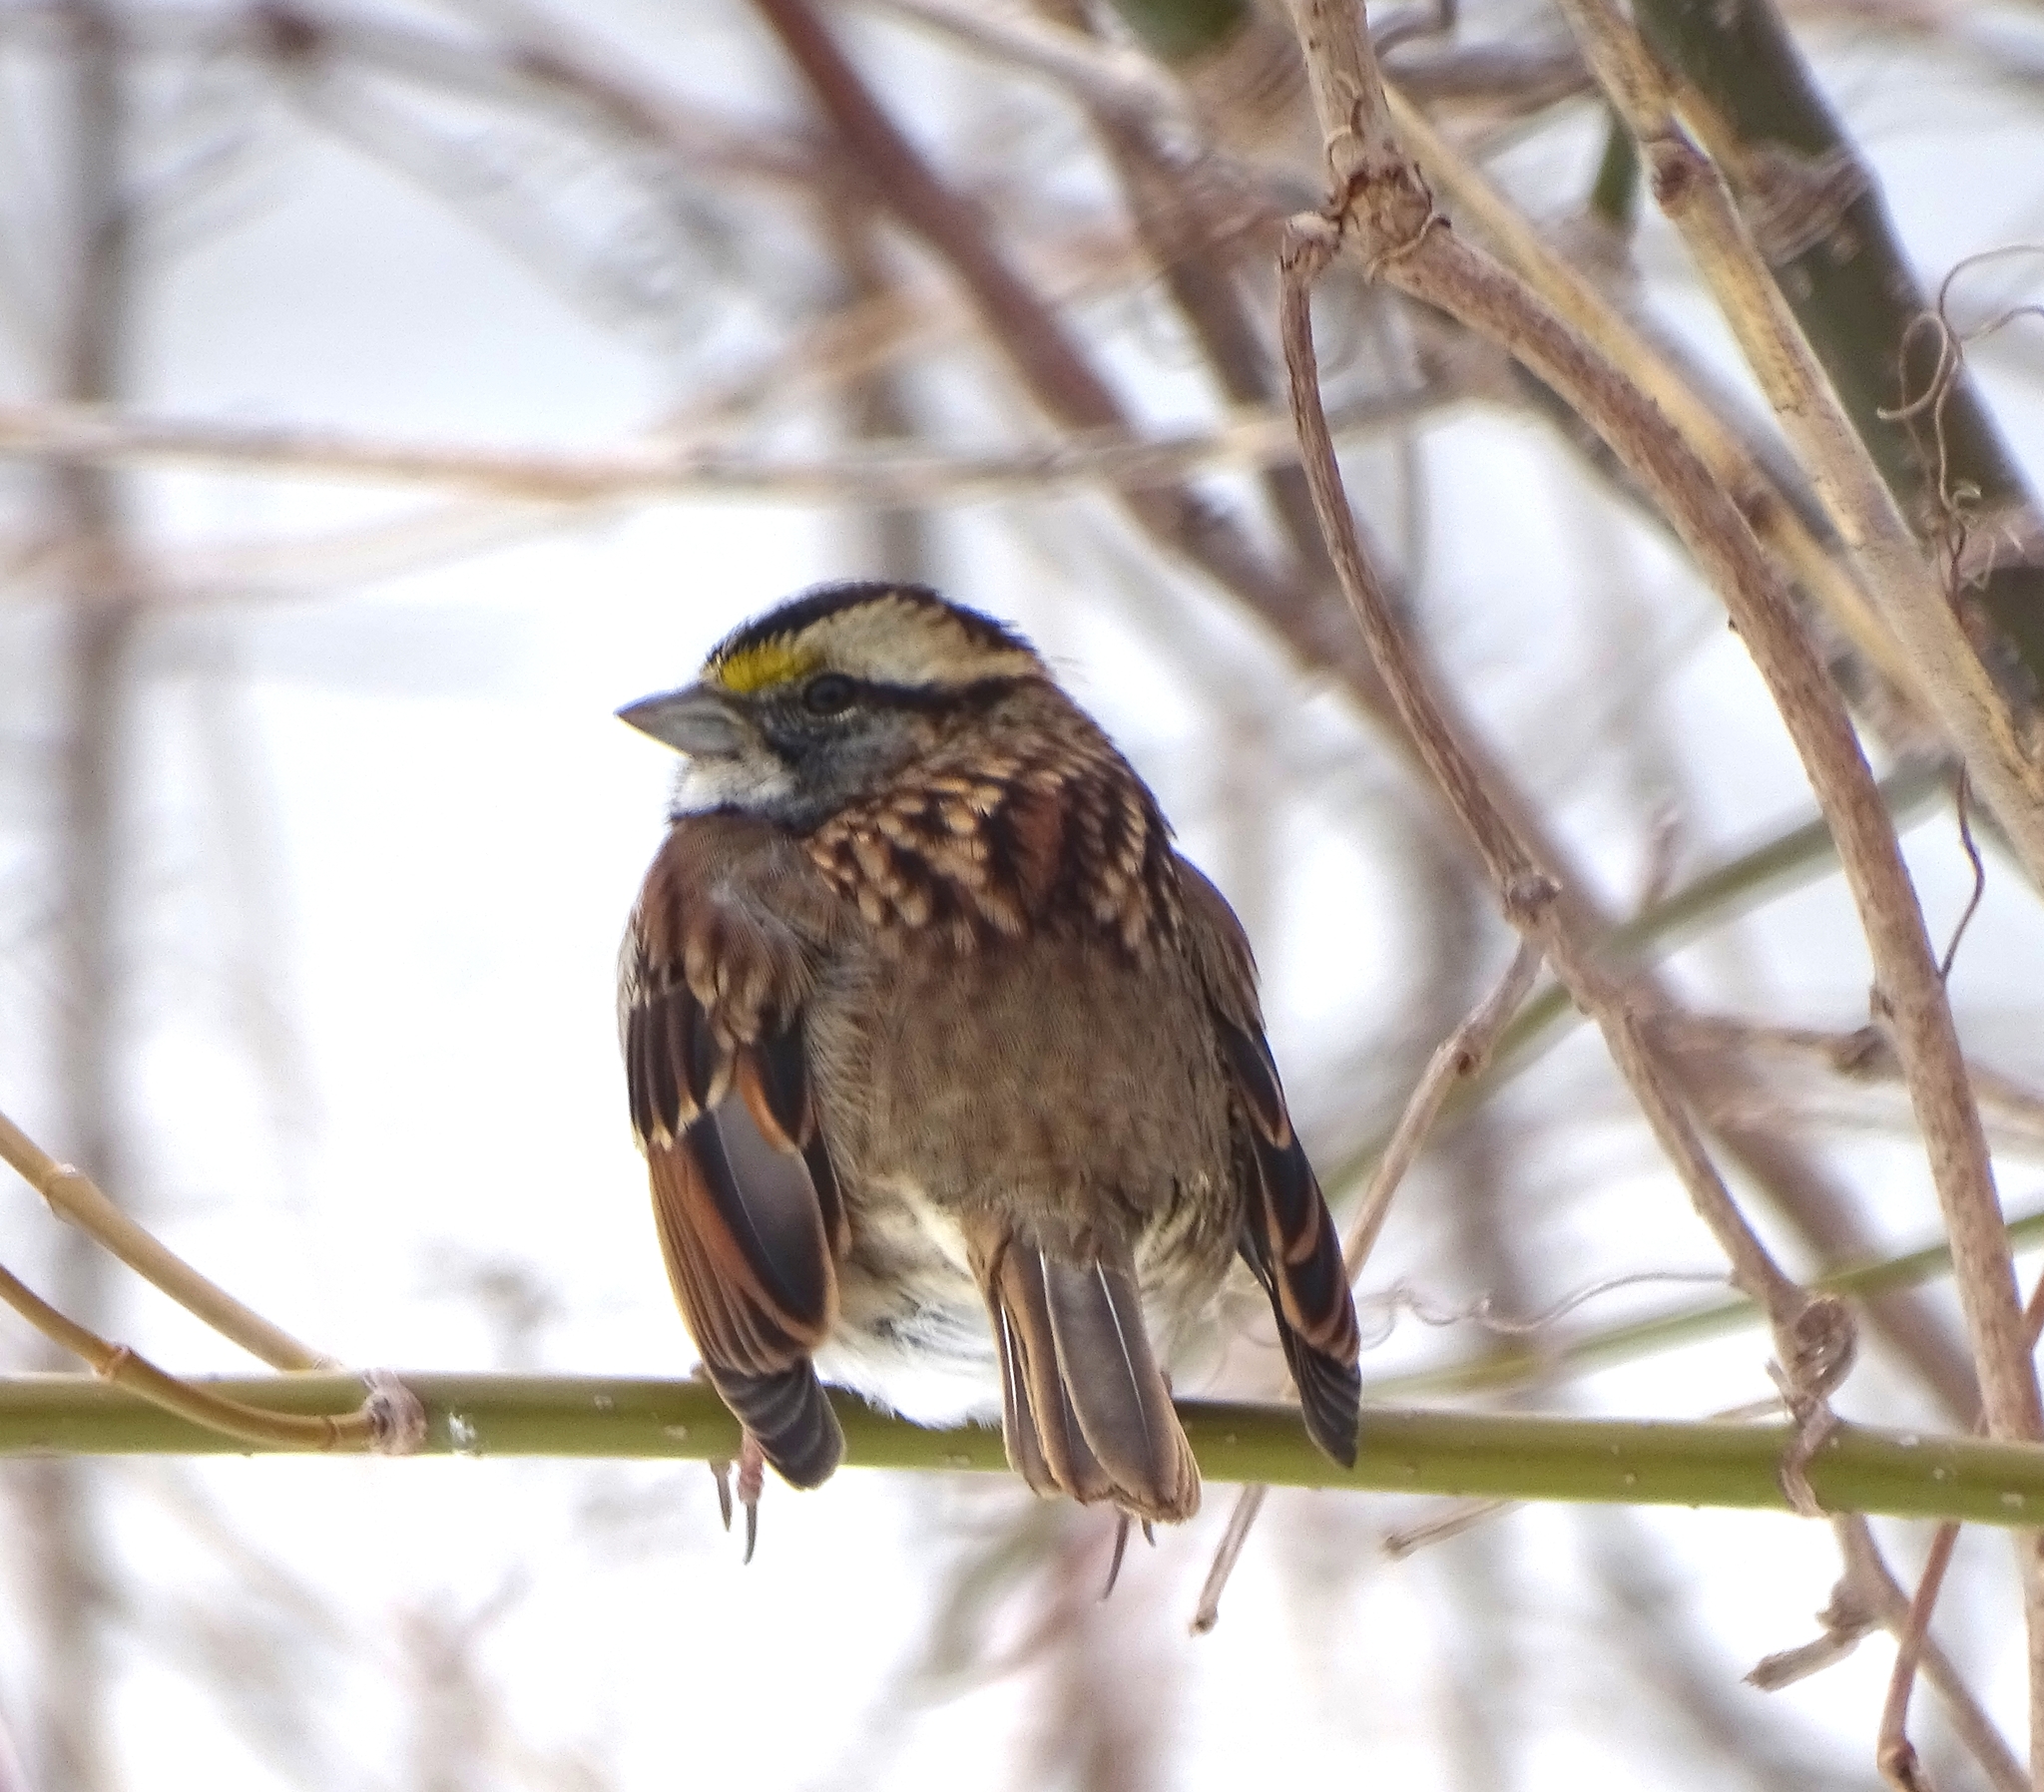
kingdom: Animalia
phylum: Chordata
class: Aves
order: Passeriformes
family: Passerellidae
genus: Zonotrichia
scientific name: Zonotrichia albicollis
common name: White-throated sparrow
